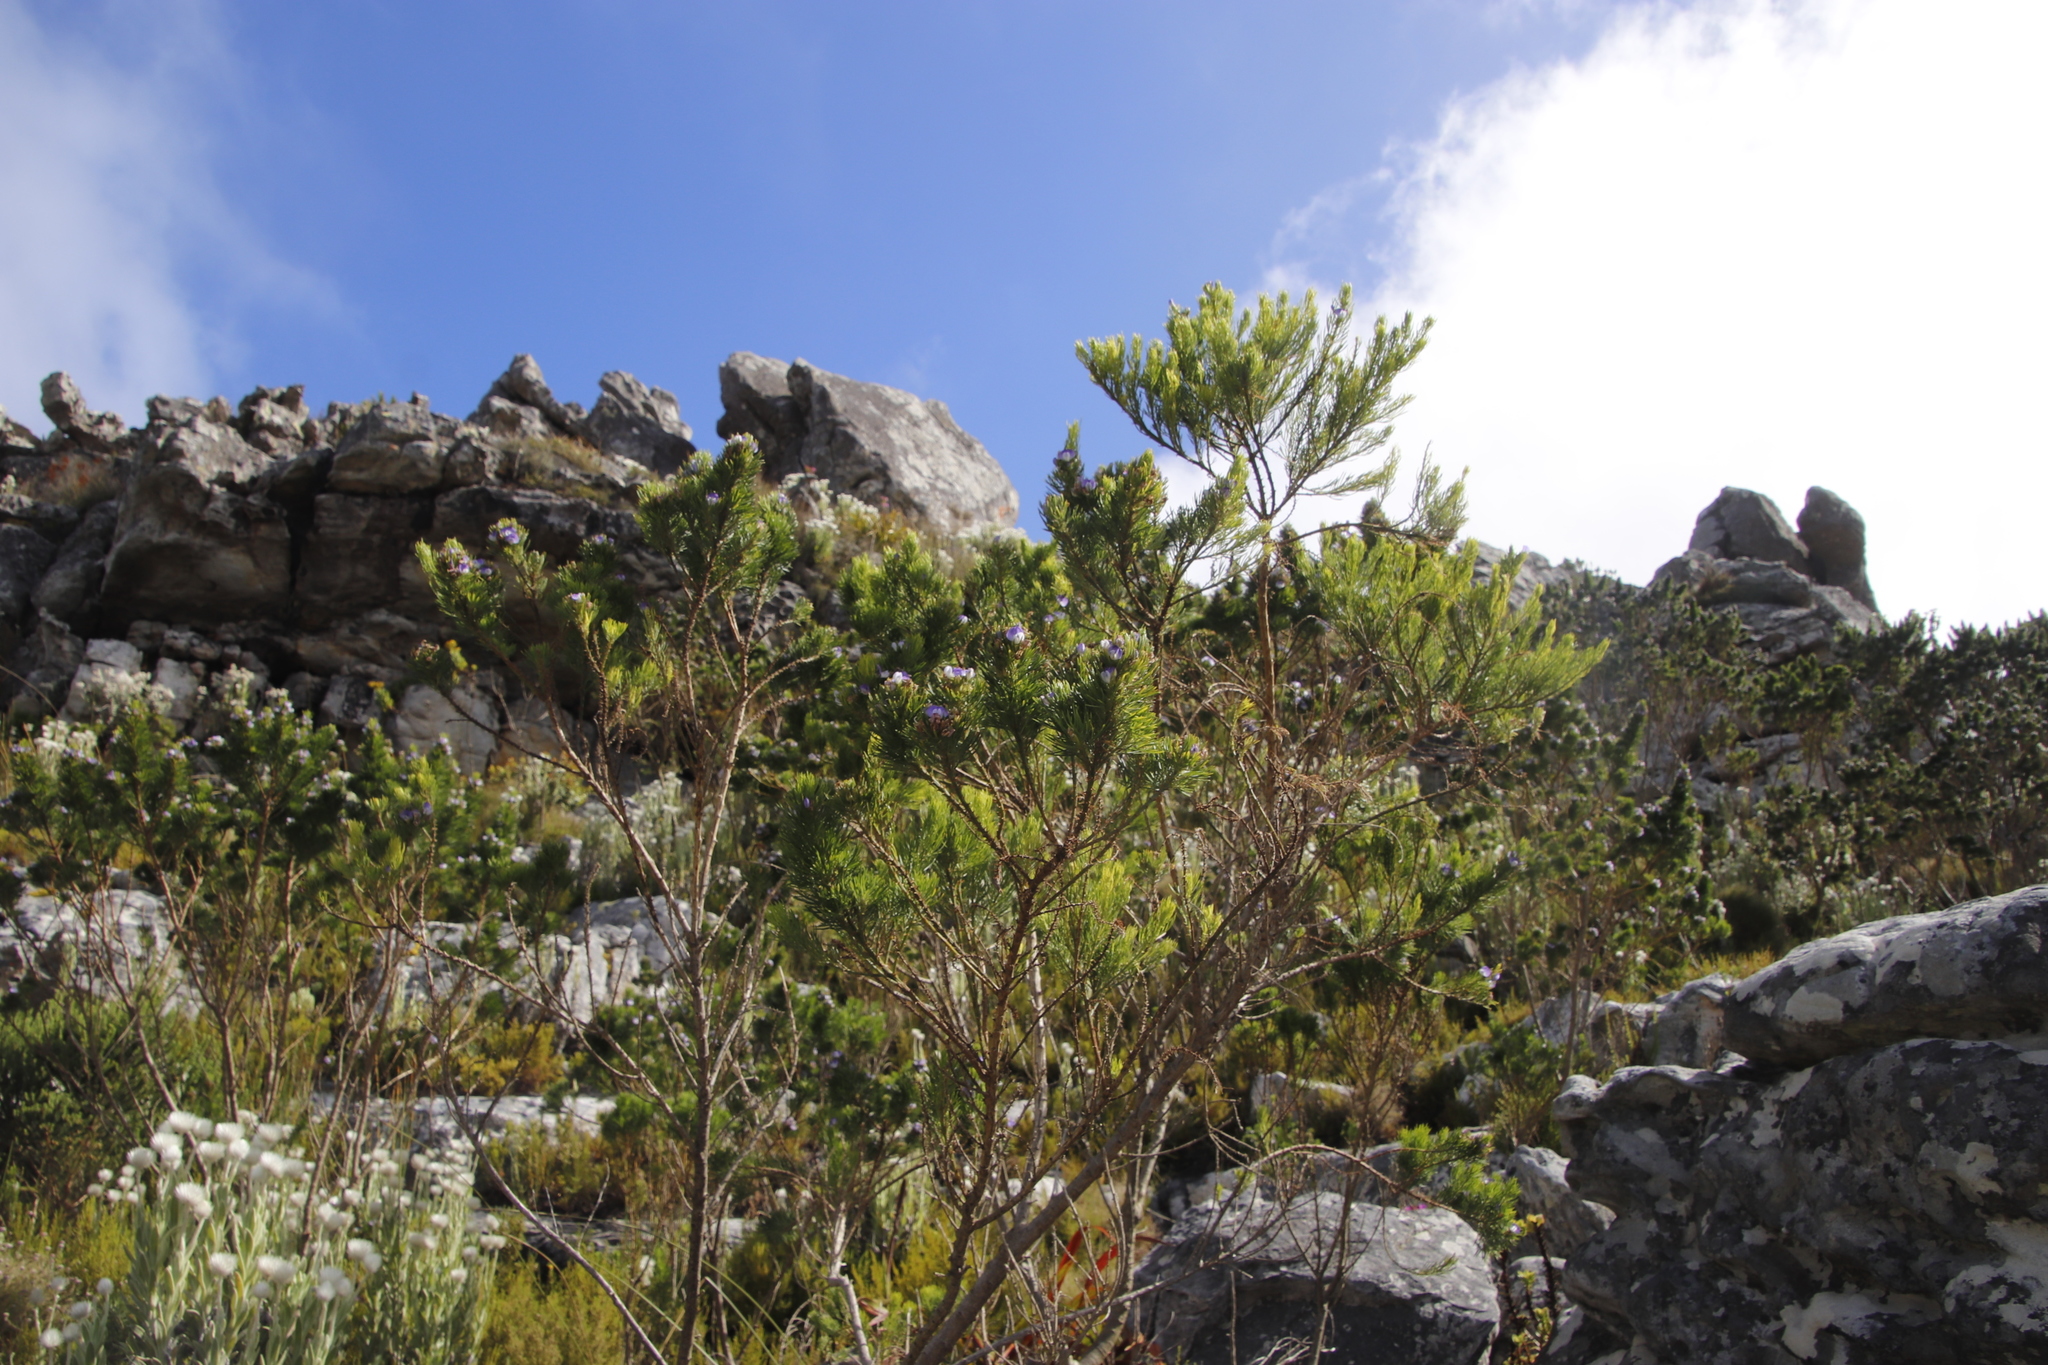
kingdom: Plantae
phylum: Tracheophyta
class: Magnoliopsida
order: Fabales
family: Fabaceae
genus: Psoralea
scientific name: Psoralea pinnata
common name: African scurfpea
